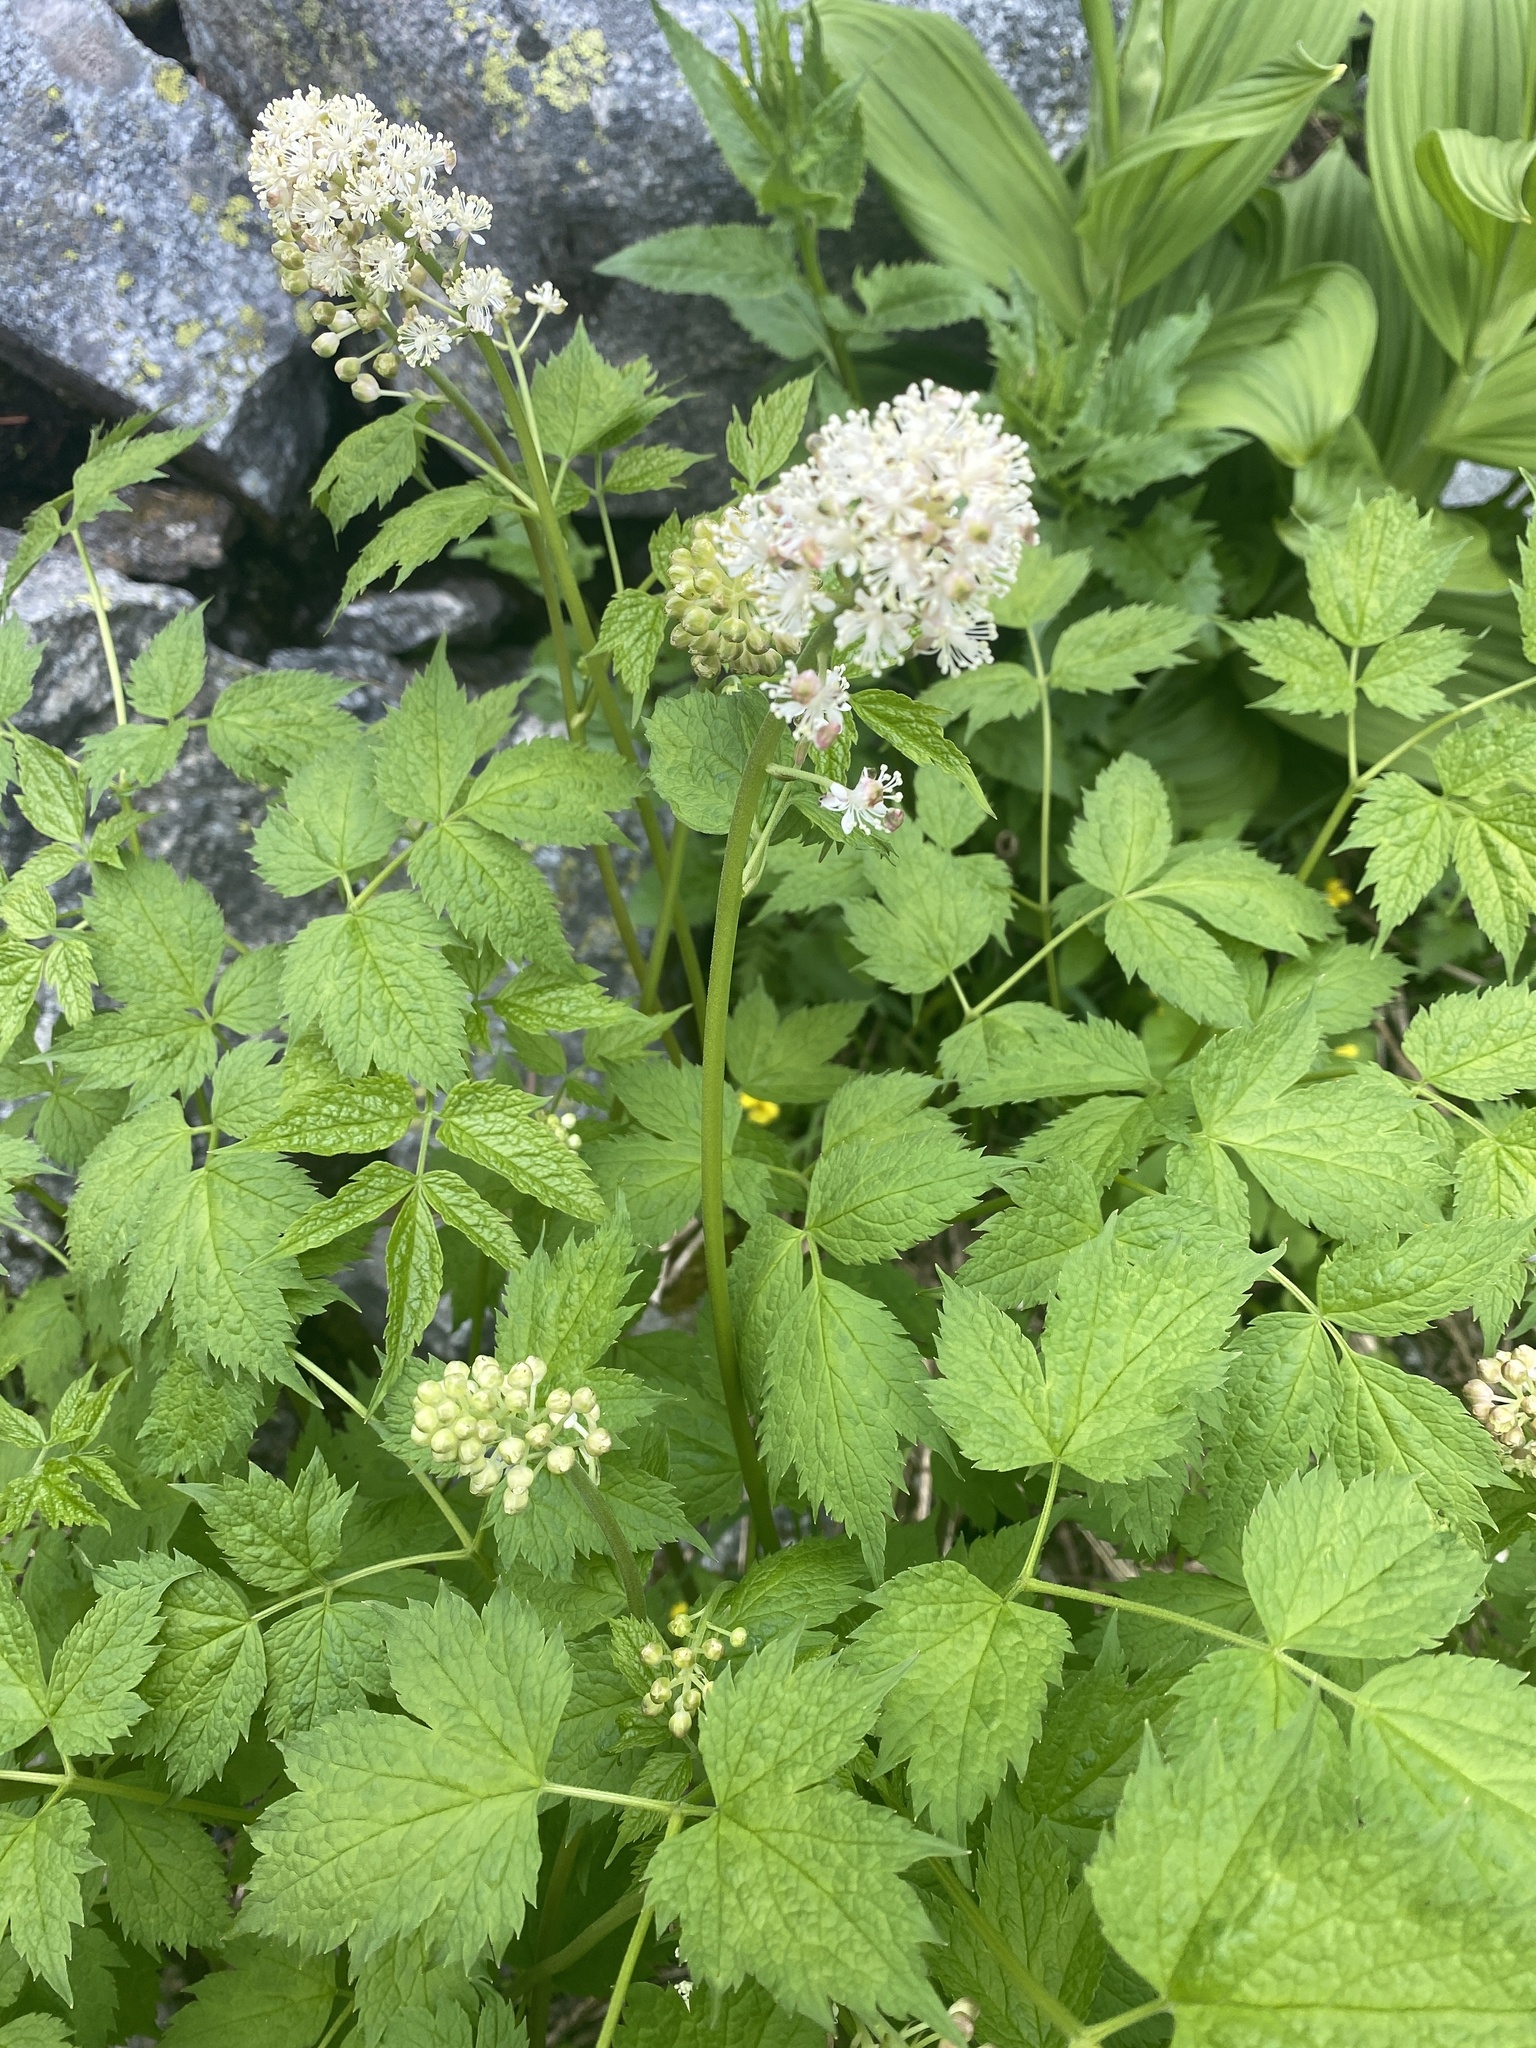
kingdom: Plantae
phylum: Tracheophyta
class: Magnoliopsida
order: Ranunculales
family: Ranunculaceae
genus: Actaea
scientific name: Actaea rubra
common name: Red baneberry
